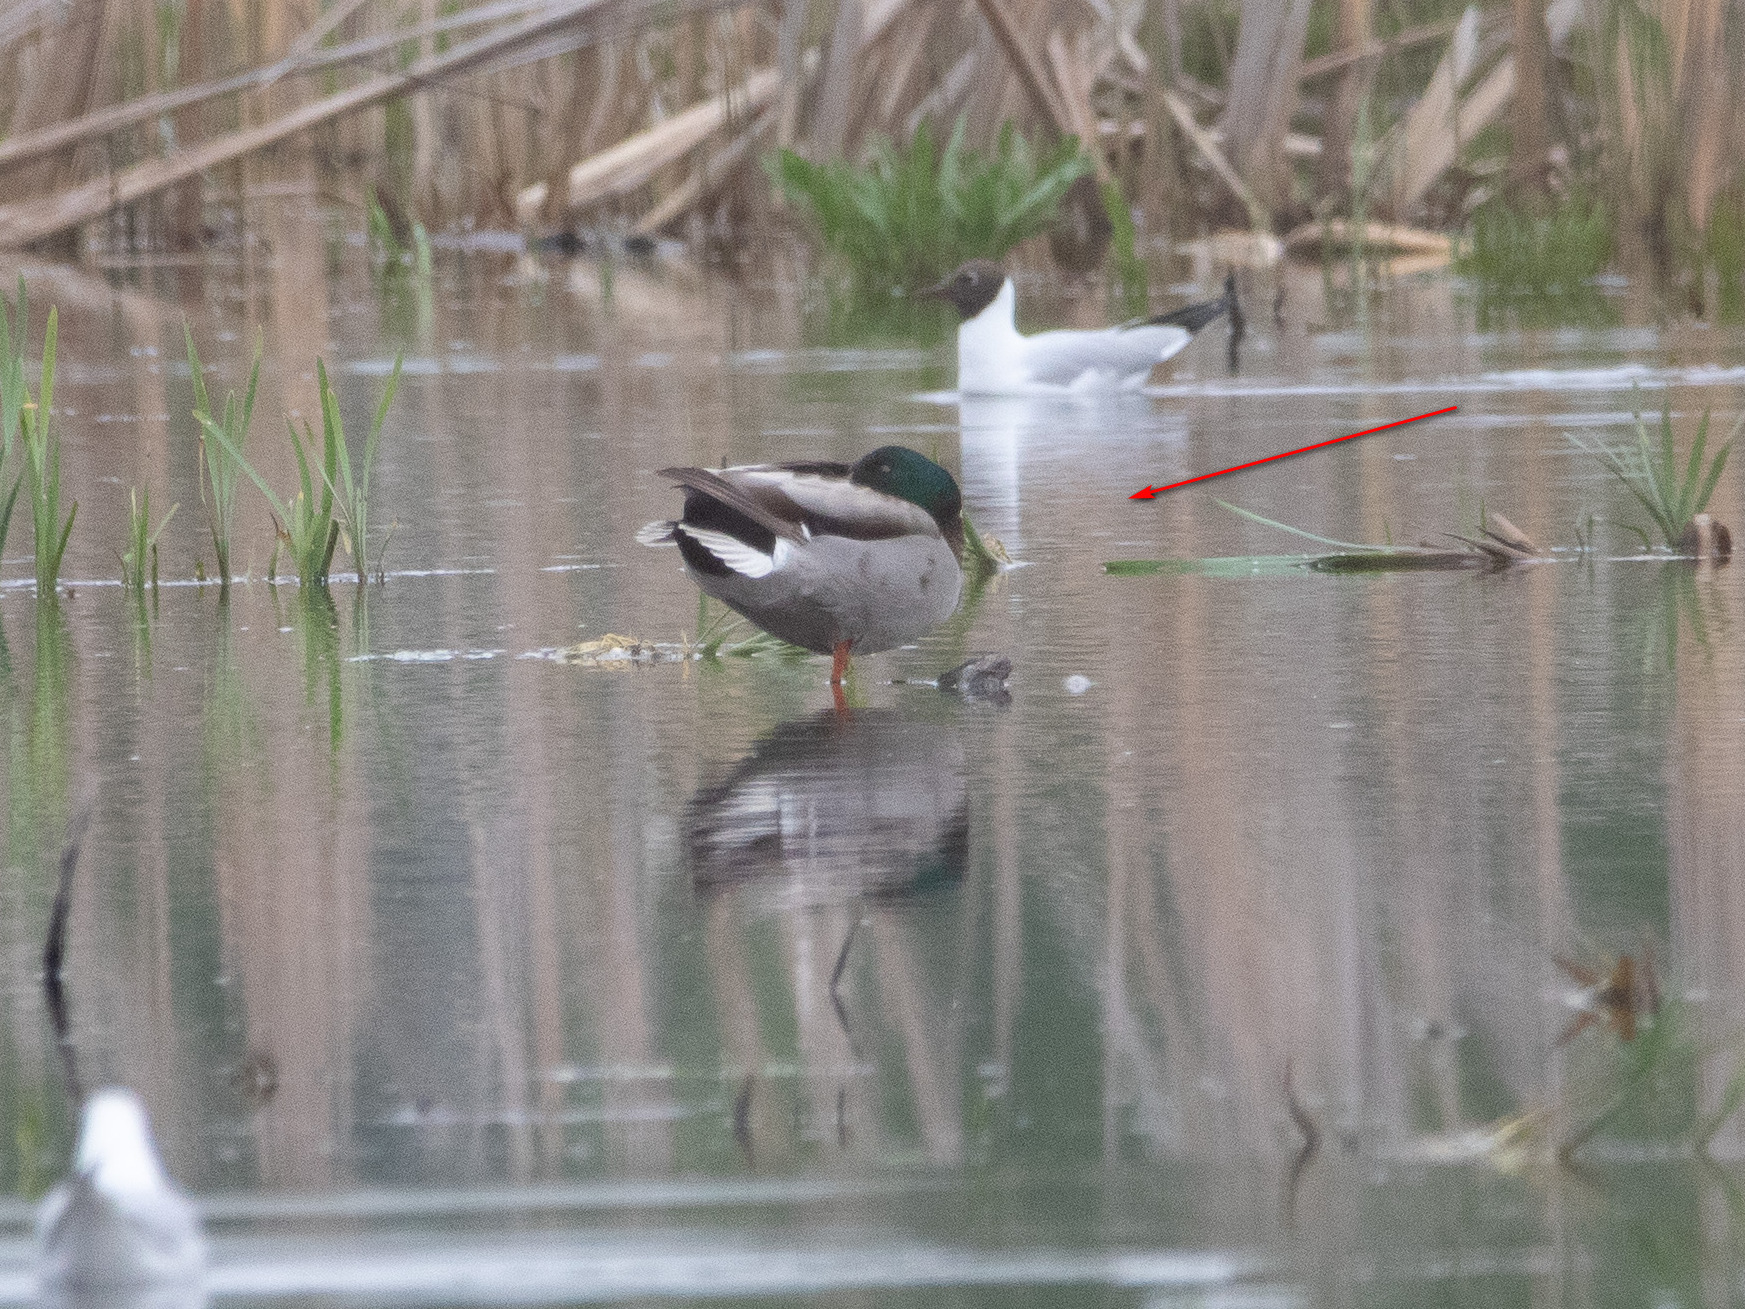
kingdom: Animalia
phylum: Chordata
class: Aves
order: Anseriformes
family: Anatidae
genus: Anas
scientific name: Anas platyrhynchos
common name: Mallard
